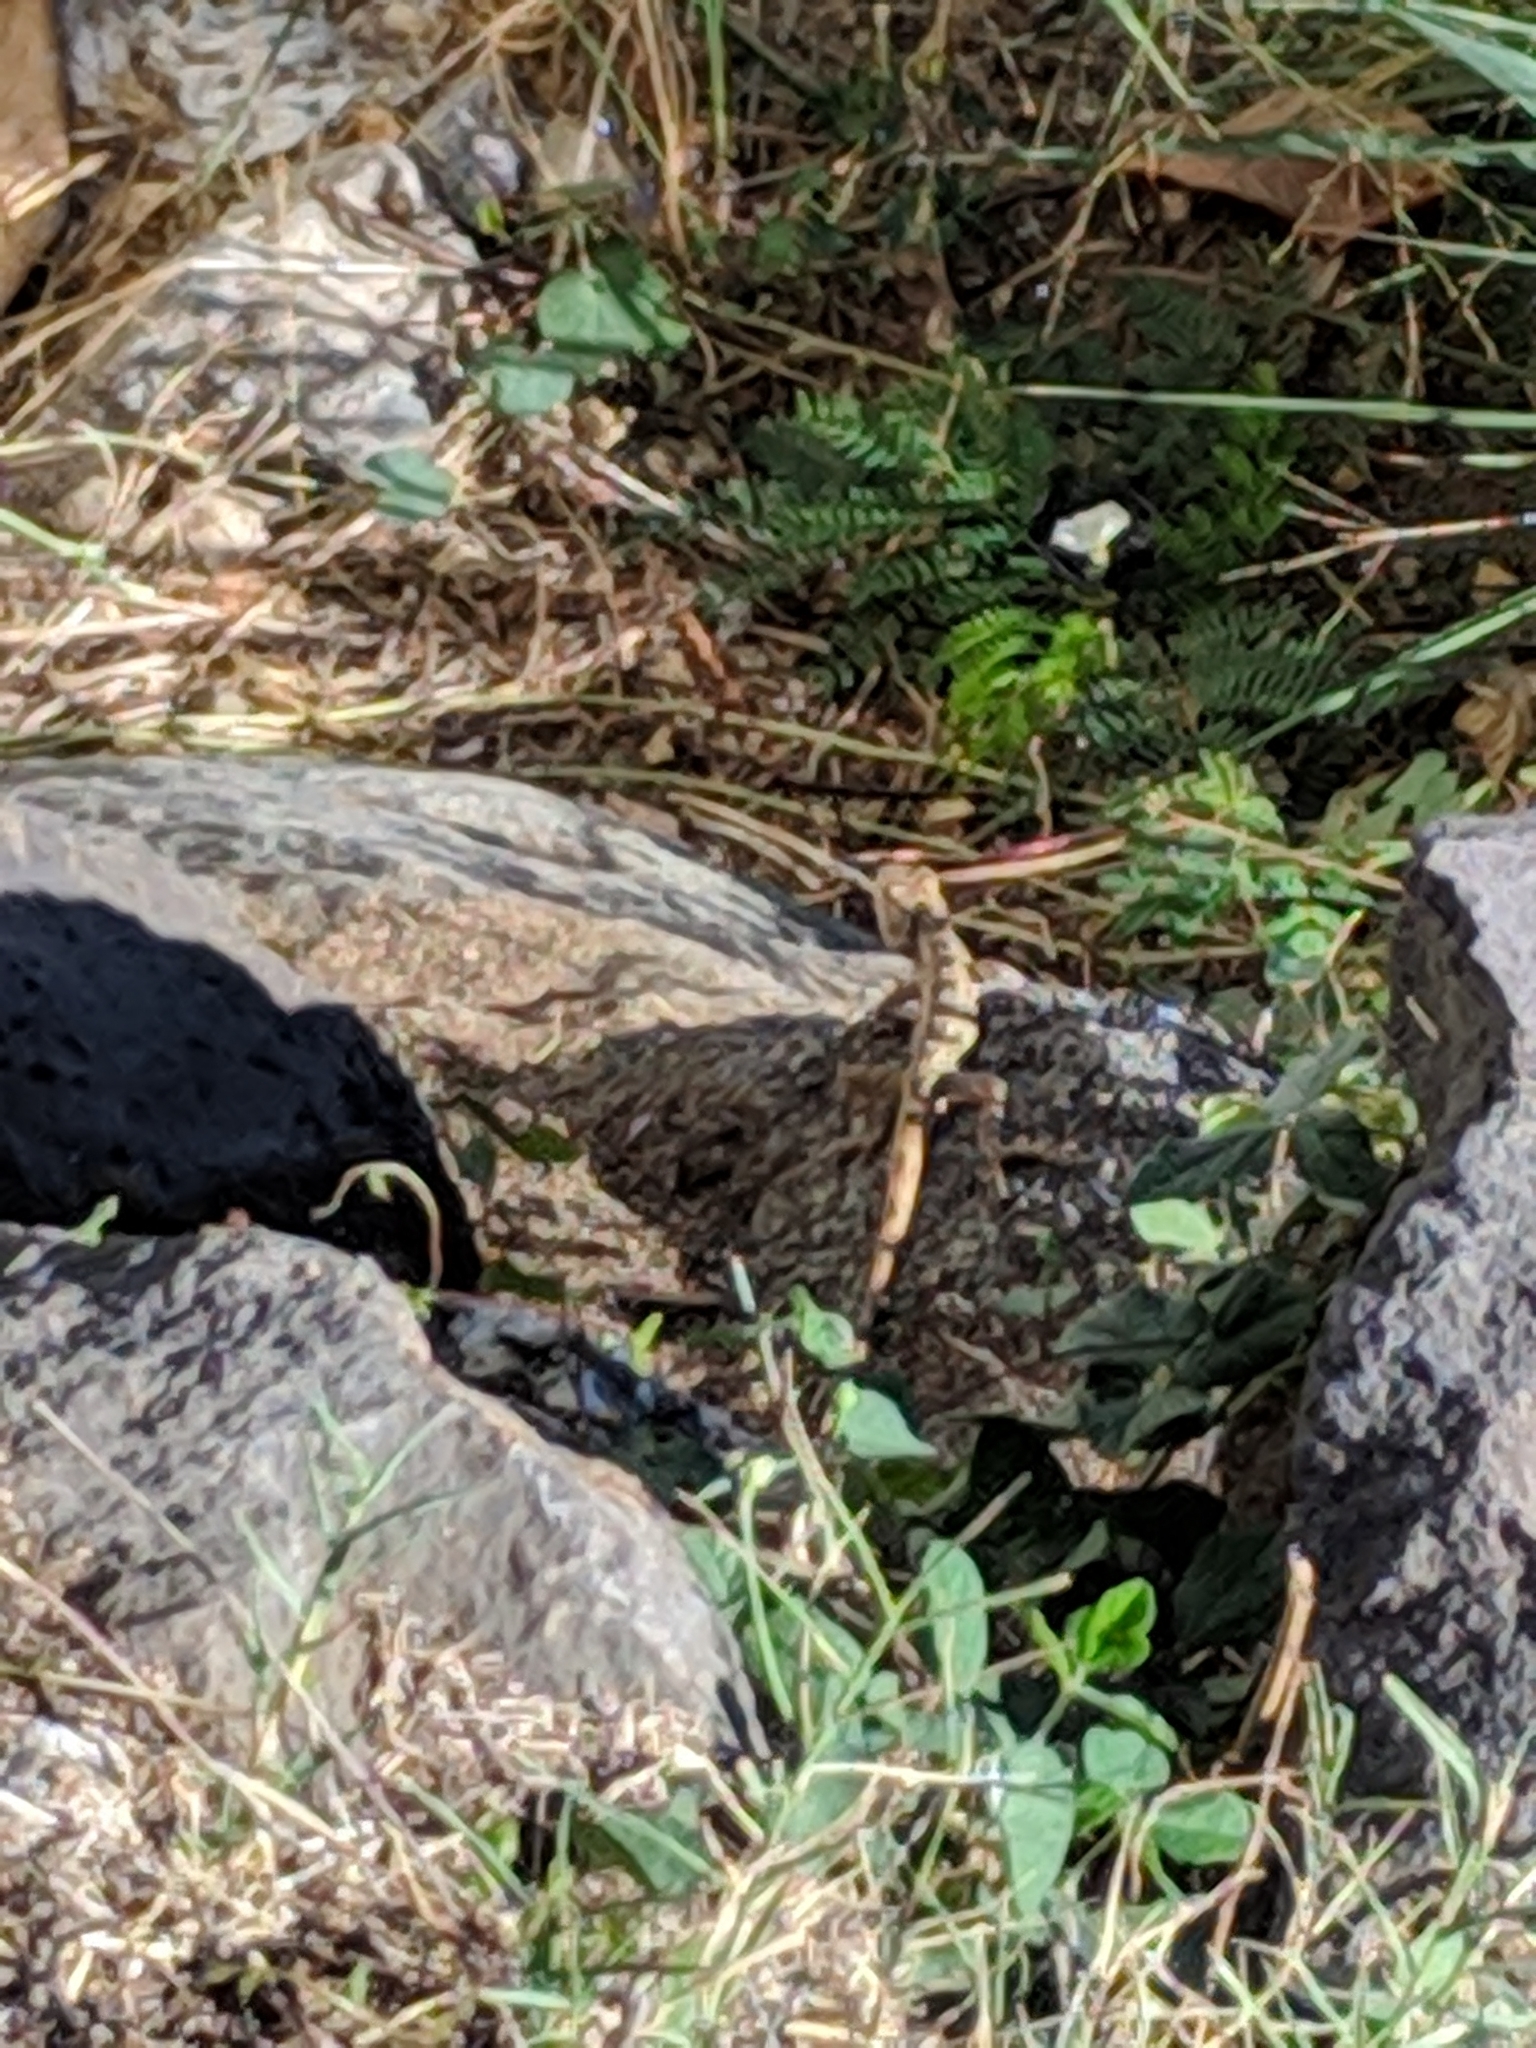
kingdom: Animalia
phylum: Chordata
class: Squamata
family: Agamidae
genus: Calotes
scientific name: Calotes versicolor
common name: Oriental garden lizard
